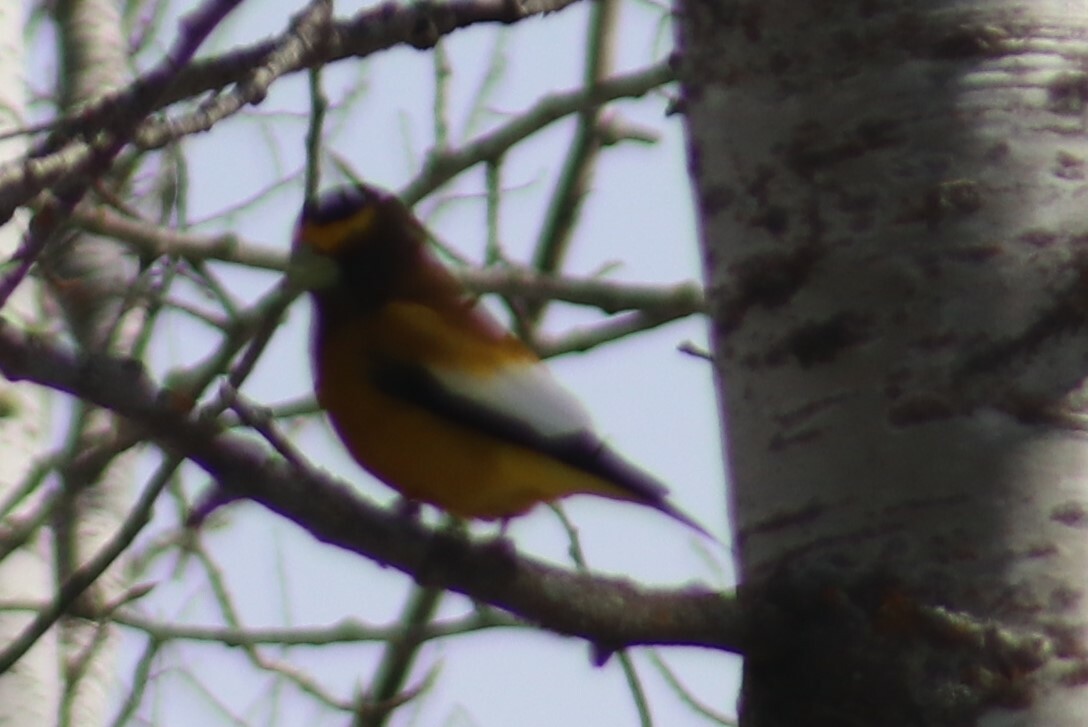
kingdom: Animalia
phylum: Chordata
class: Aves
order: Passeriformes
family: Fringillidae
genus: Hesperiphona
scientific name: Hesperiphona vespertina
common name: Evening grosbeak
